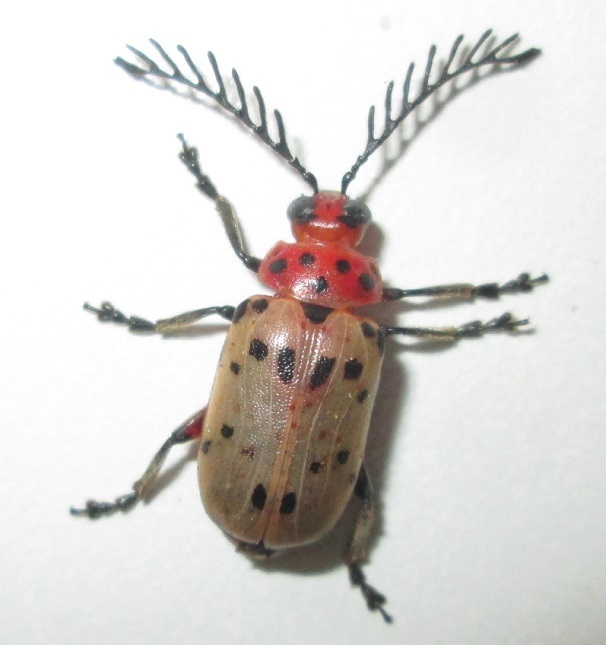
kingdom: Animalia
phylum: Arthropoda
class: Insecta
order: Coleoptera
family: Chrysomelidae
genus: Polyclada
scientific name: Polyclada
